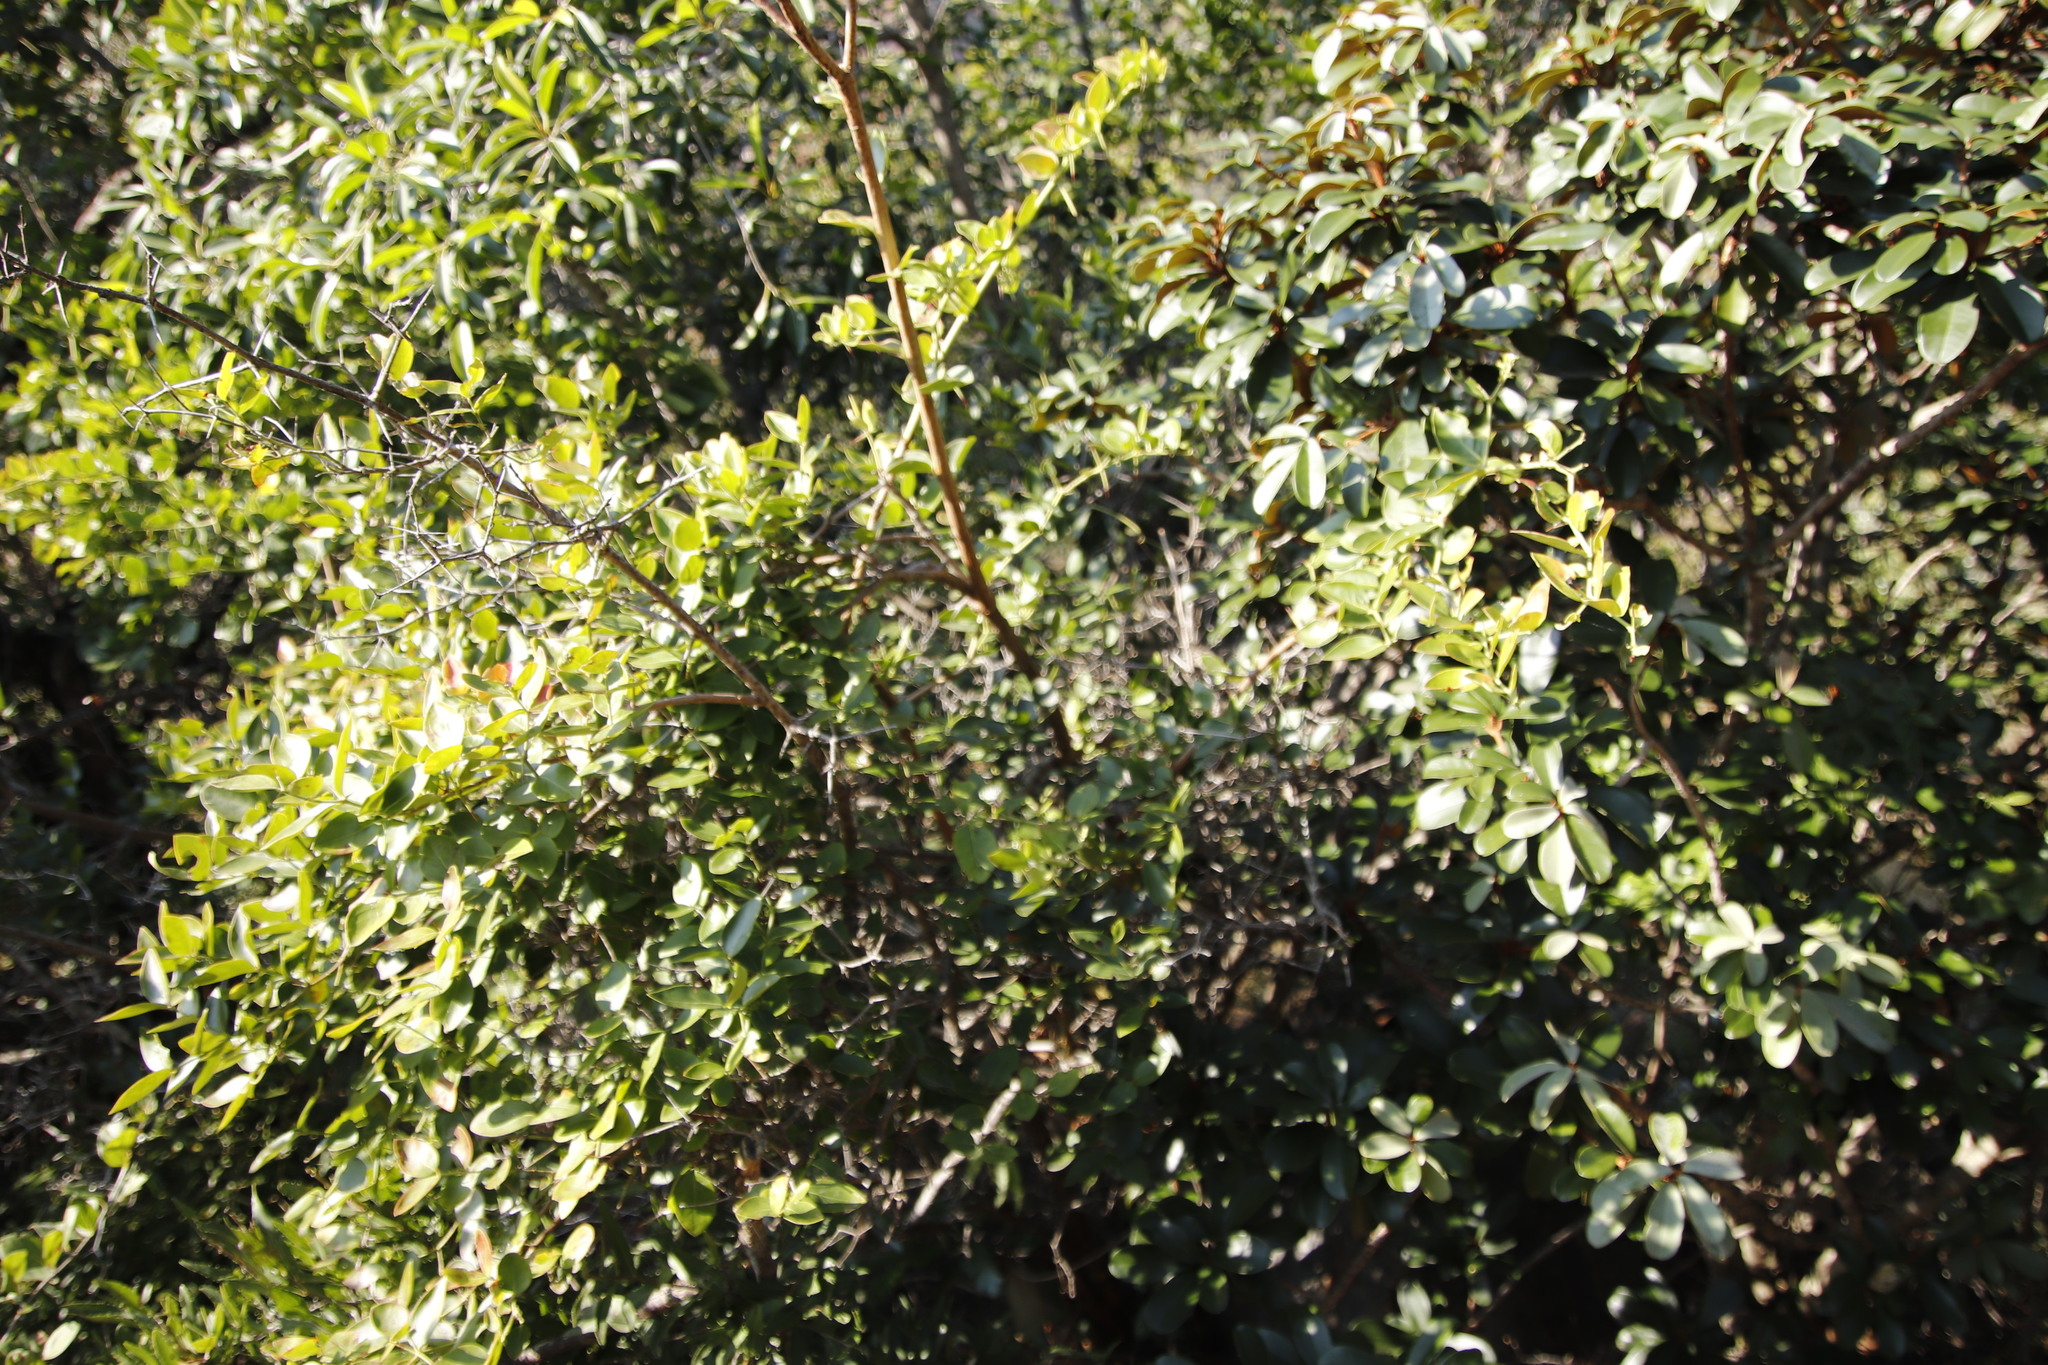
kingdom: Plantae
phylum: Tracheophyta
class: Magnoliopsida
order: Gentianales
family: Apocynaceae
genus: Carissa
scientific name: Carissa spinarum
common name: Egyptian carissa
